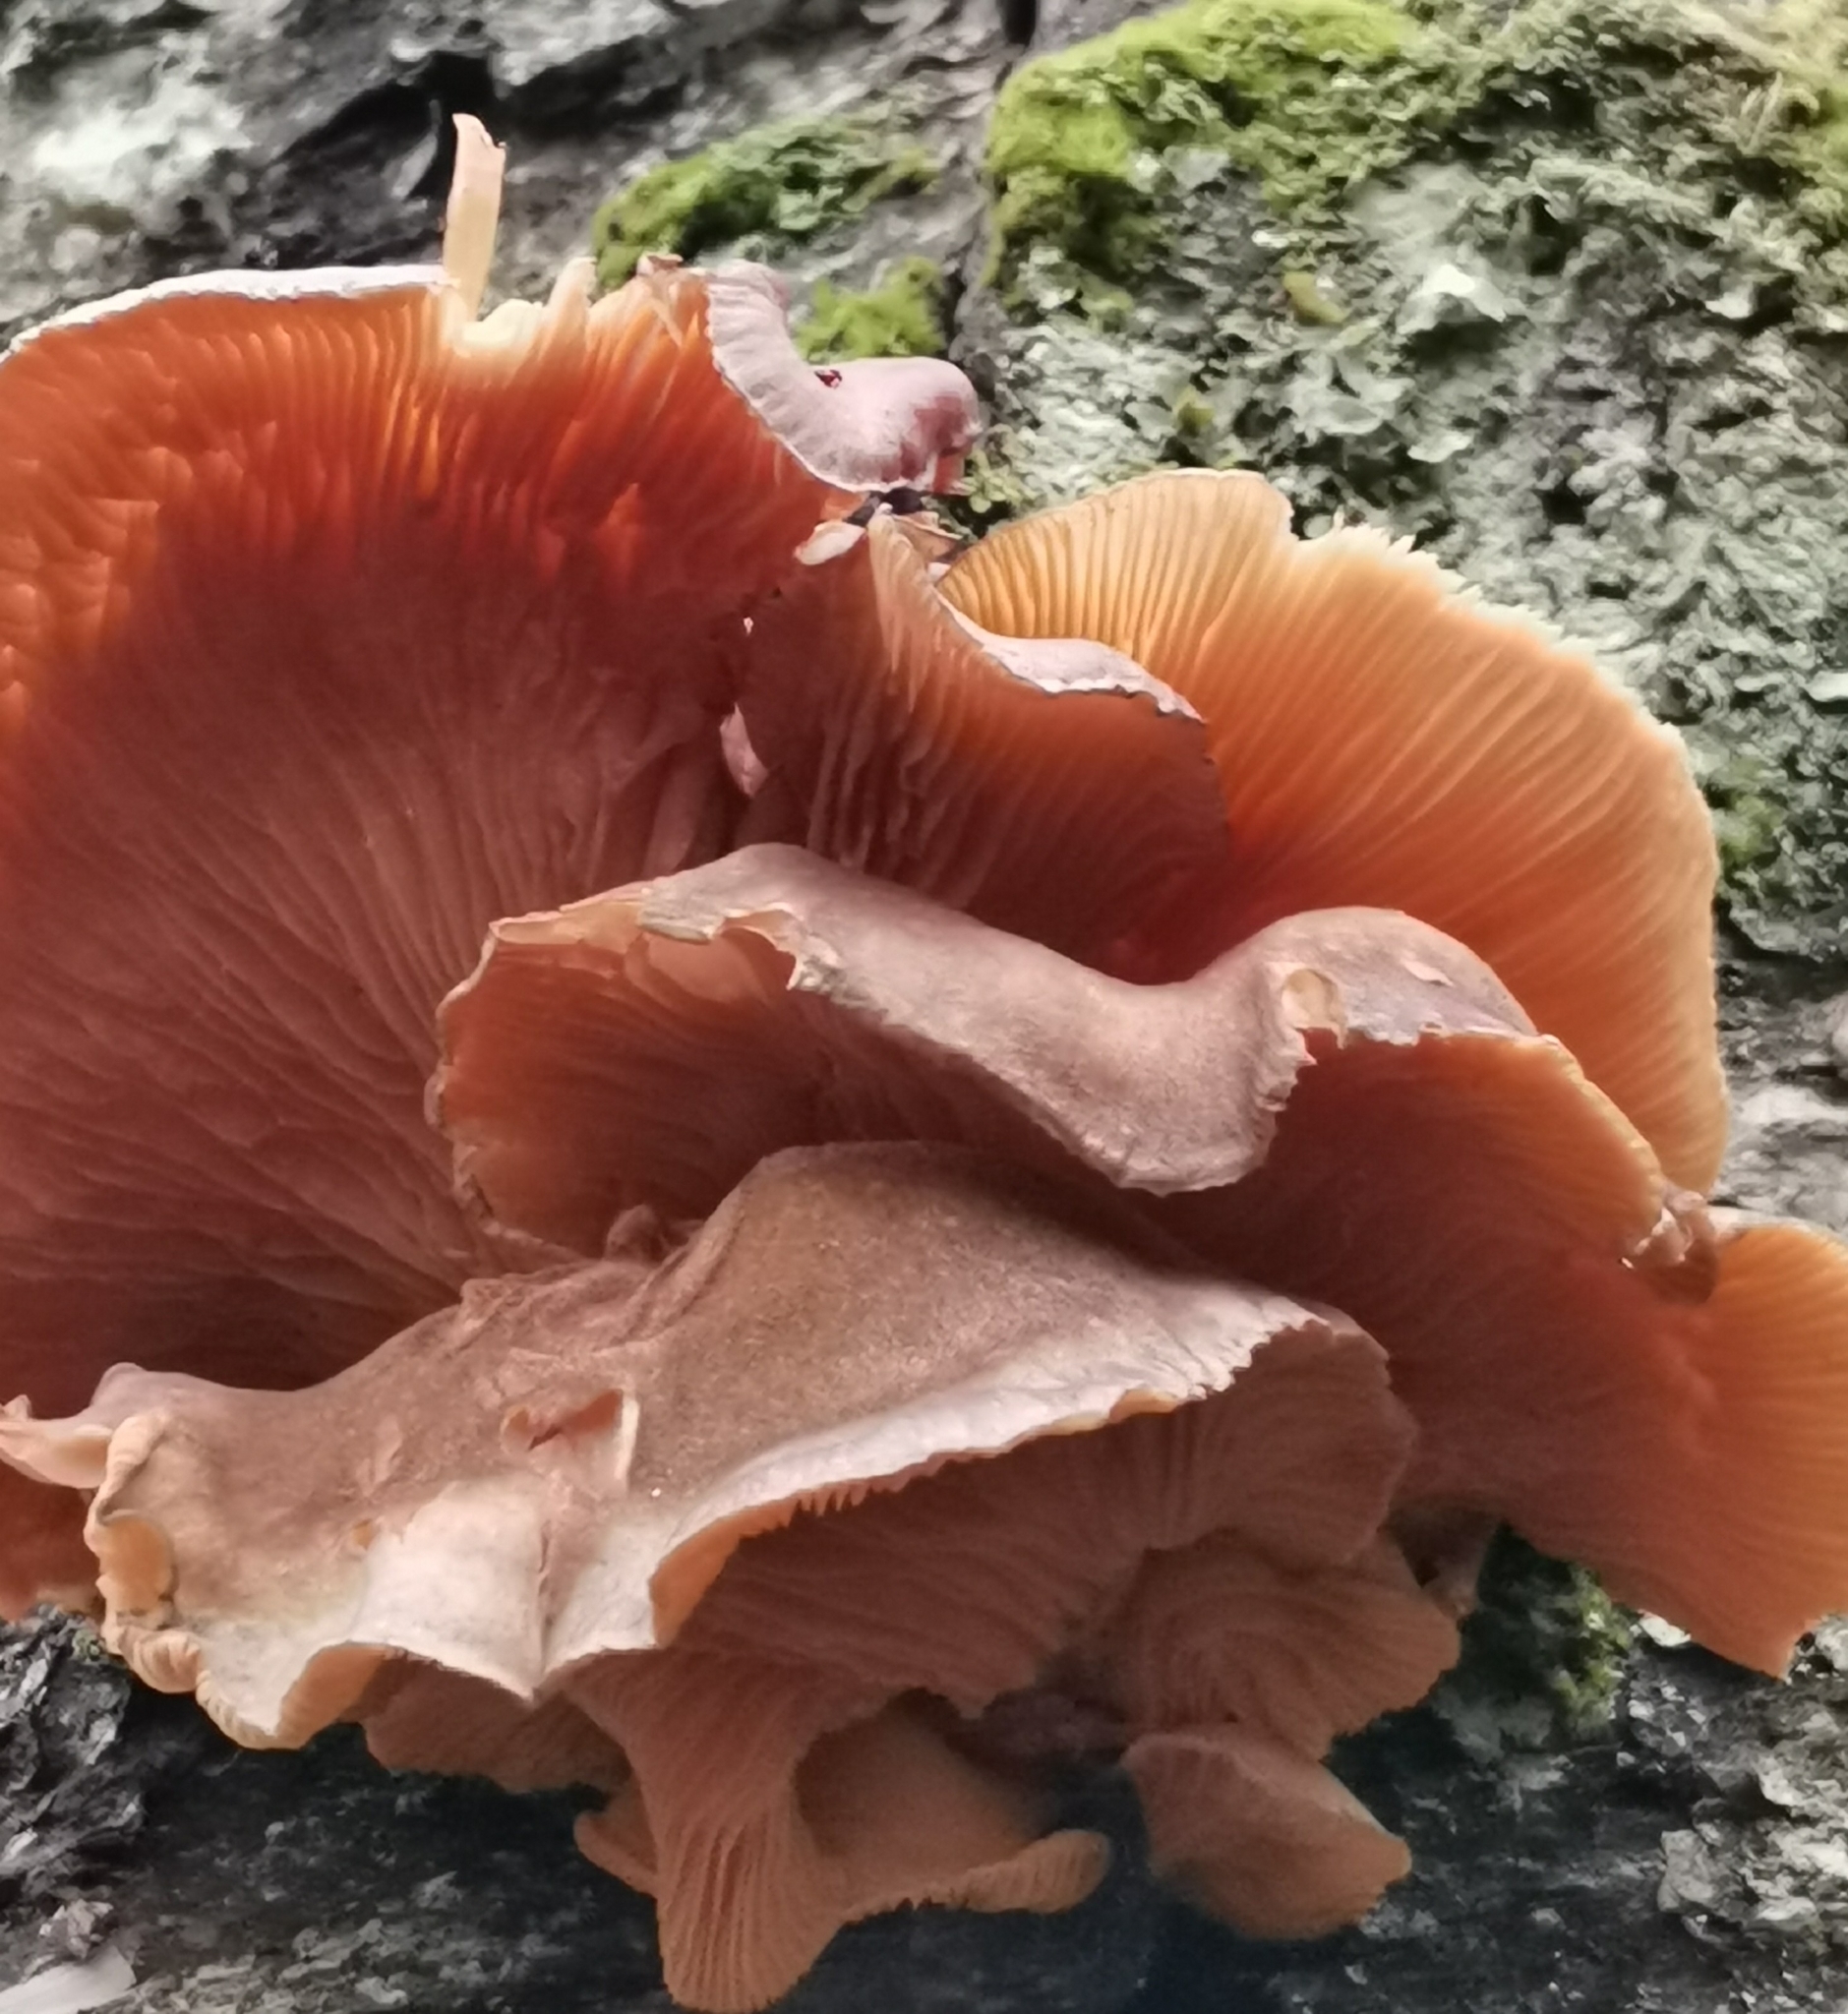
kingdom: Fungi
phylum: Basidiomycota
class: Agaricomycetes
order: Agaricales
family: Sarcomyxaceae
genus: Sarcomyxa
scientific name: Sarcomyxa serotina
